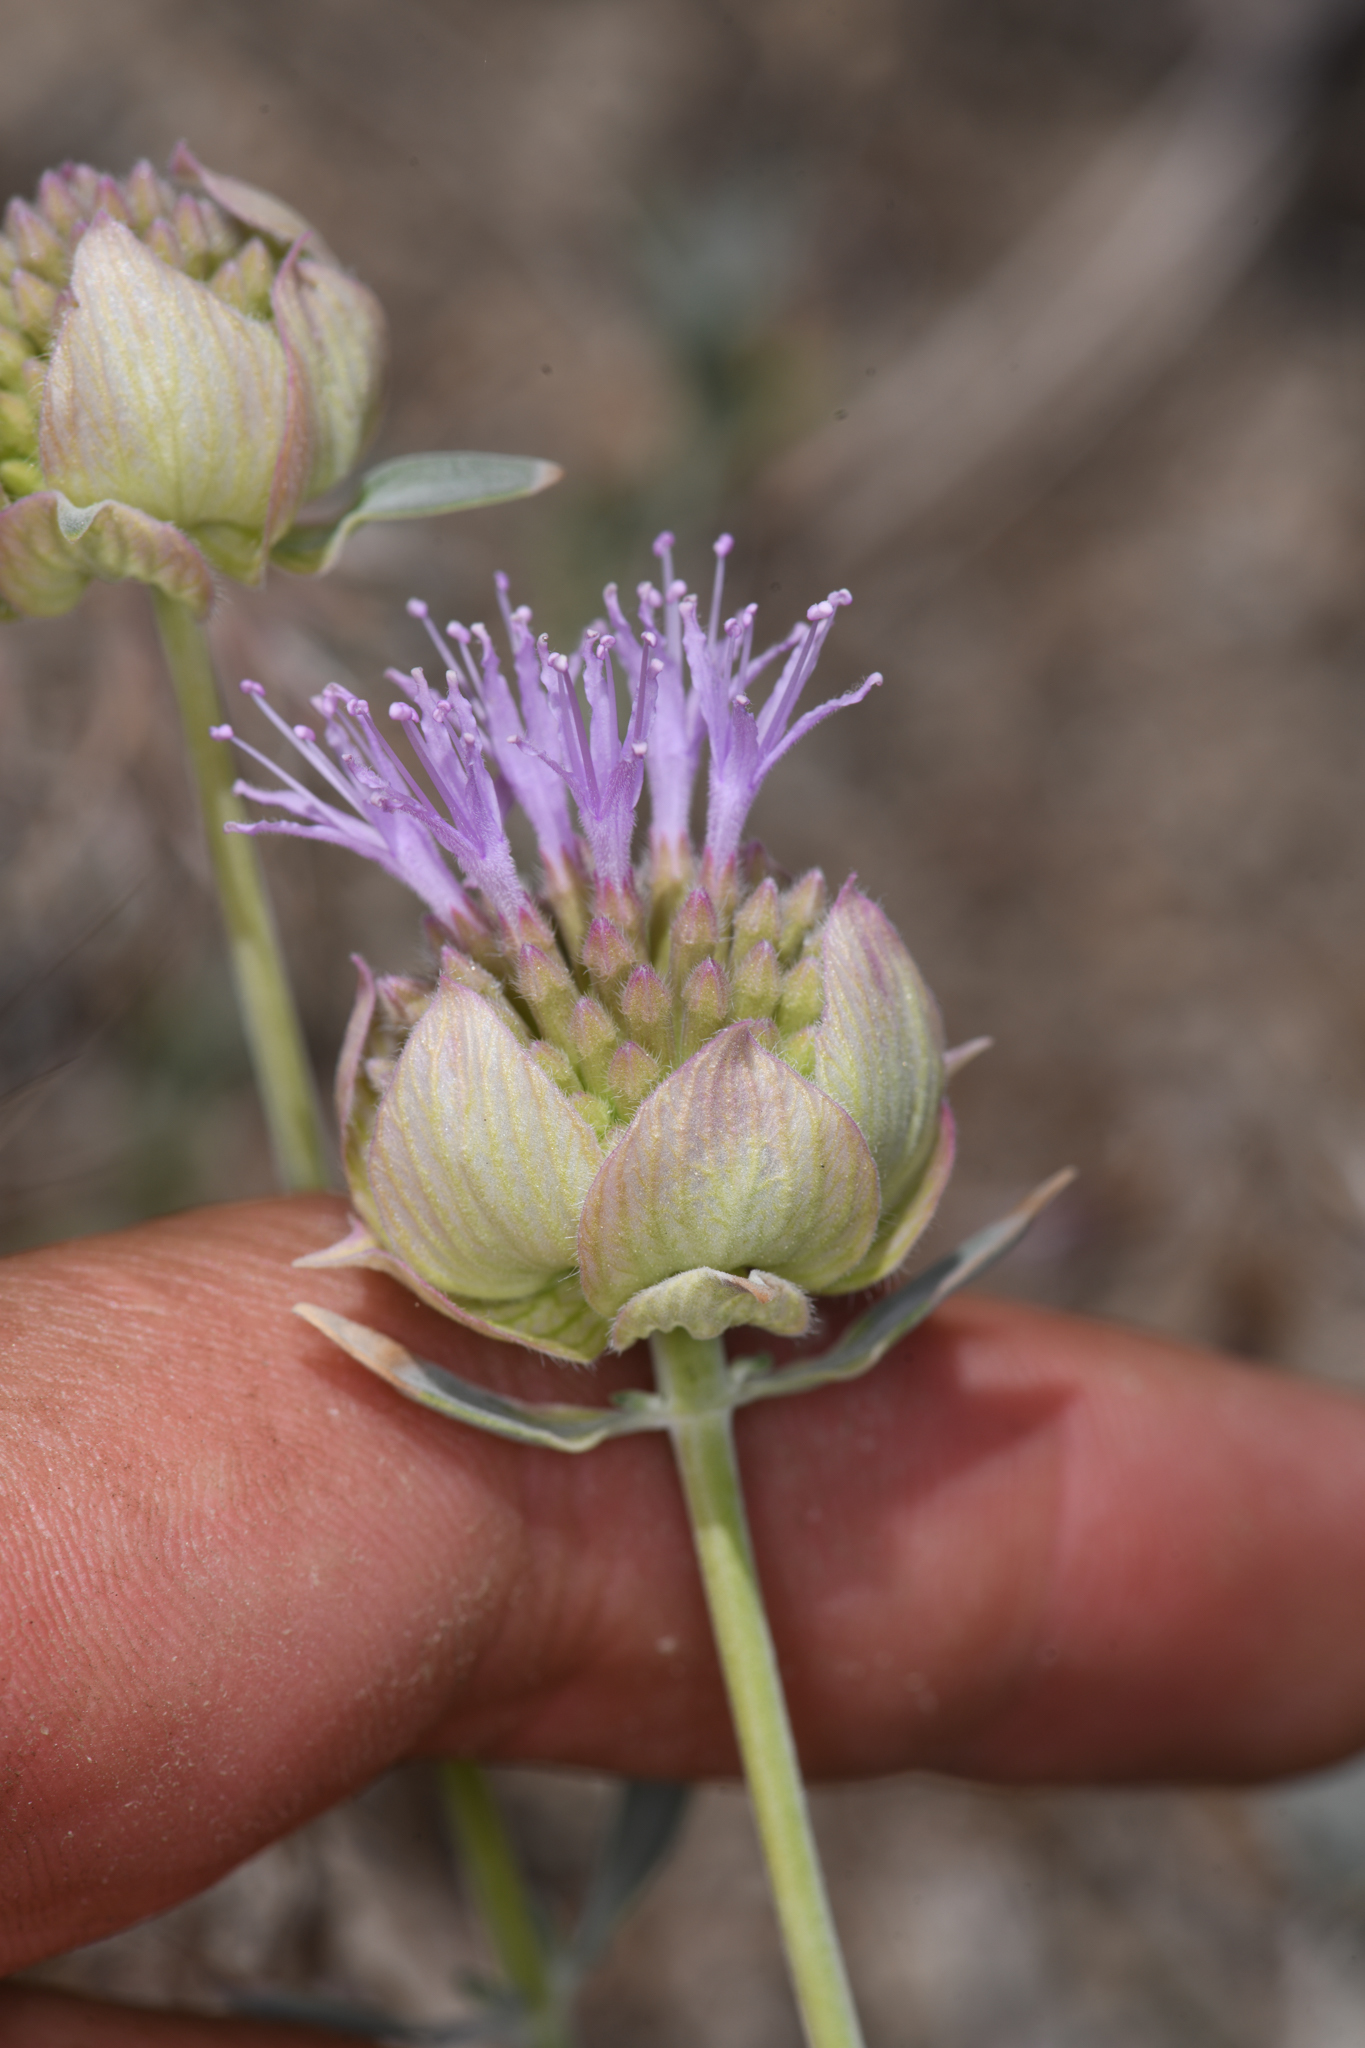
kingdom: Plantae
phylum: Tracheophyta
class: Magnoliopsida
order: Lamiales
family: Lamiaceae
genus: Monardella
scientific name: Monardella linoides
